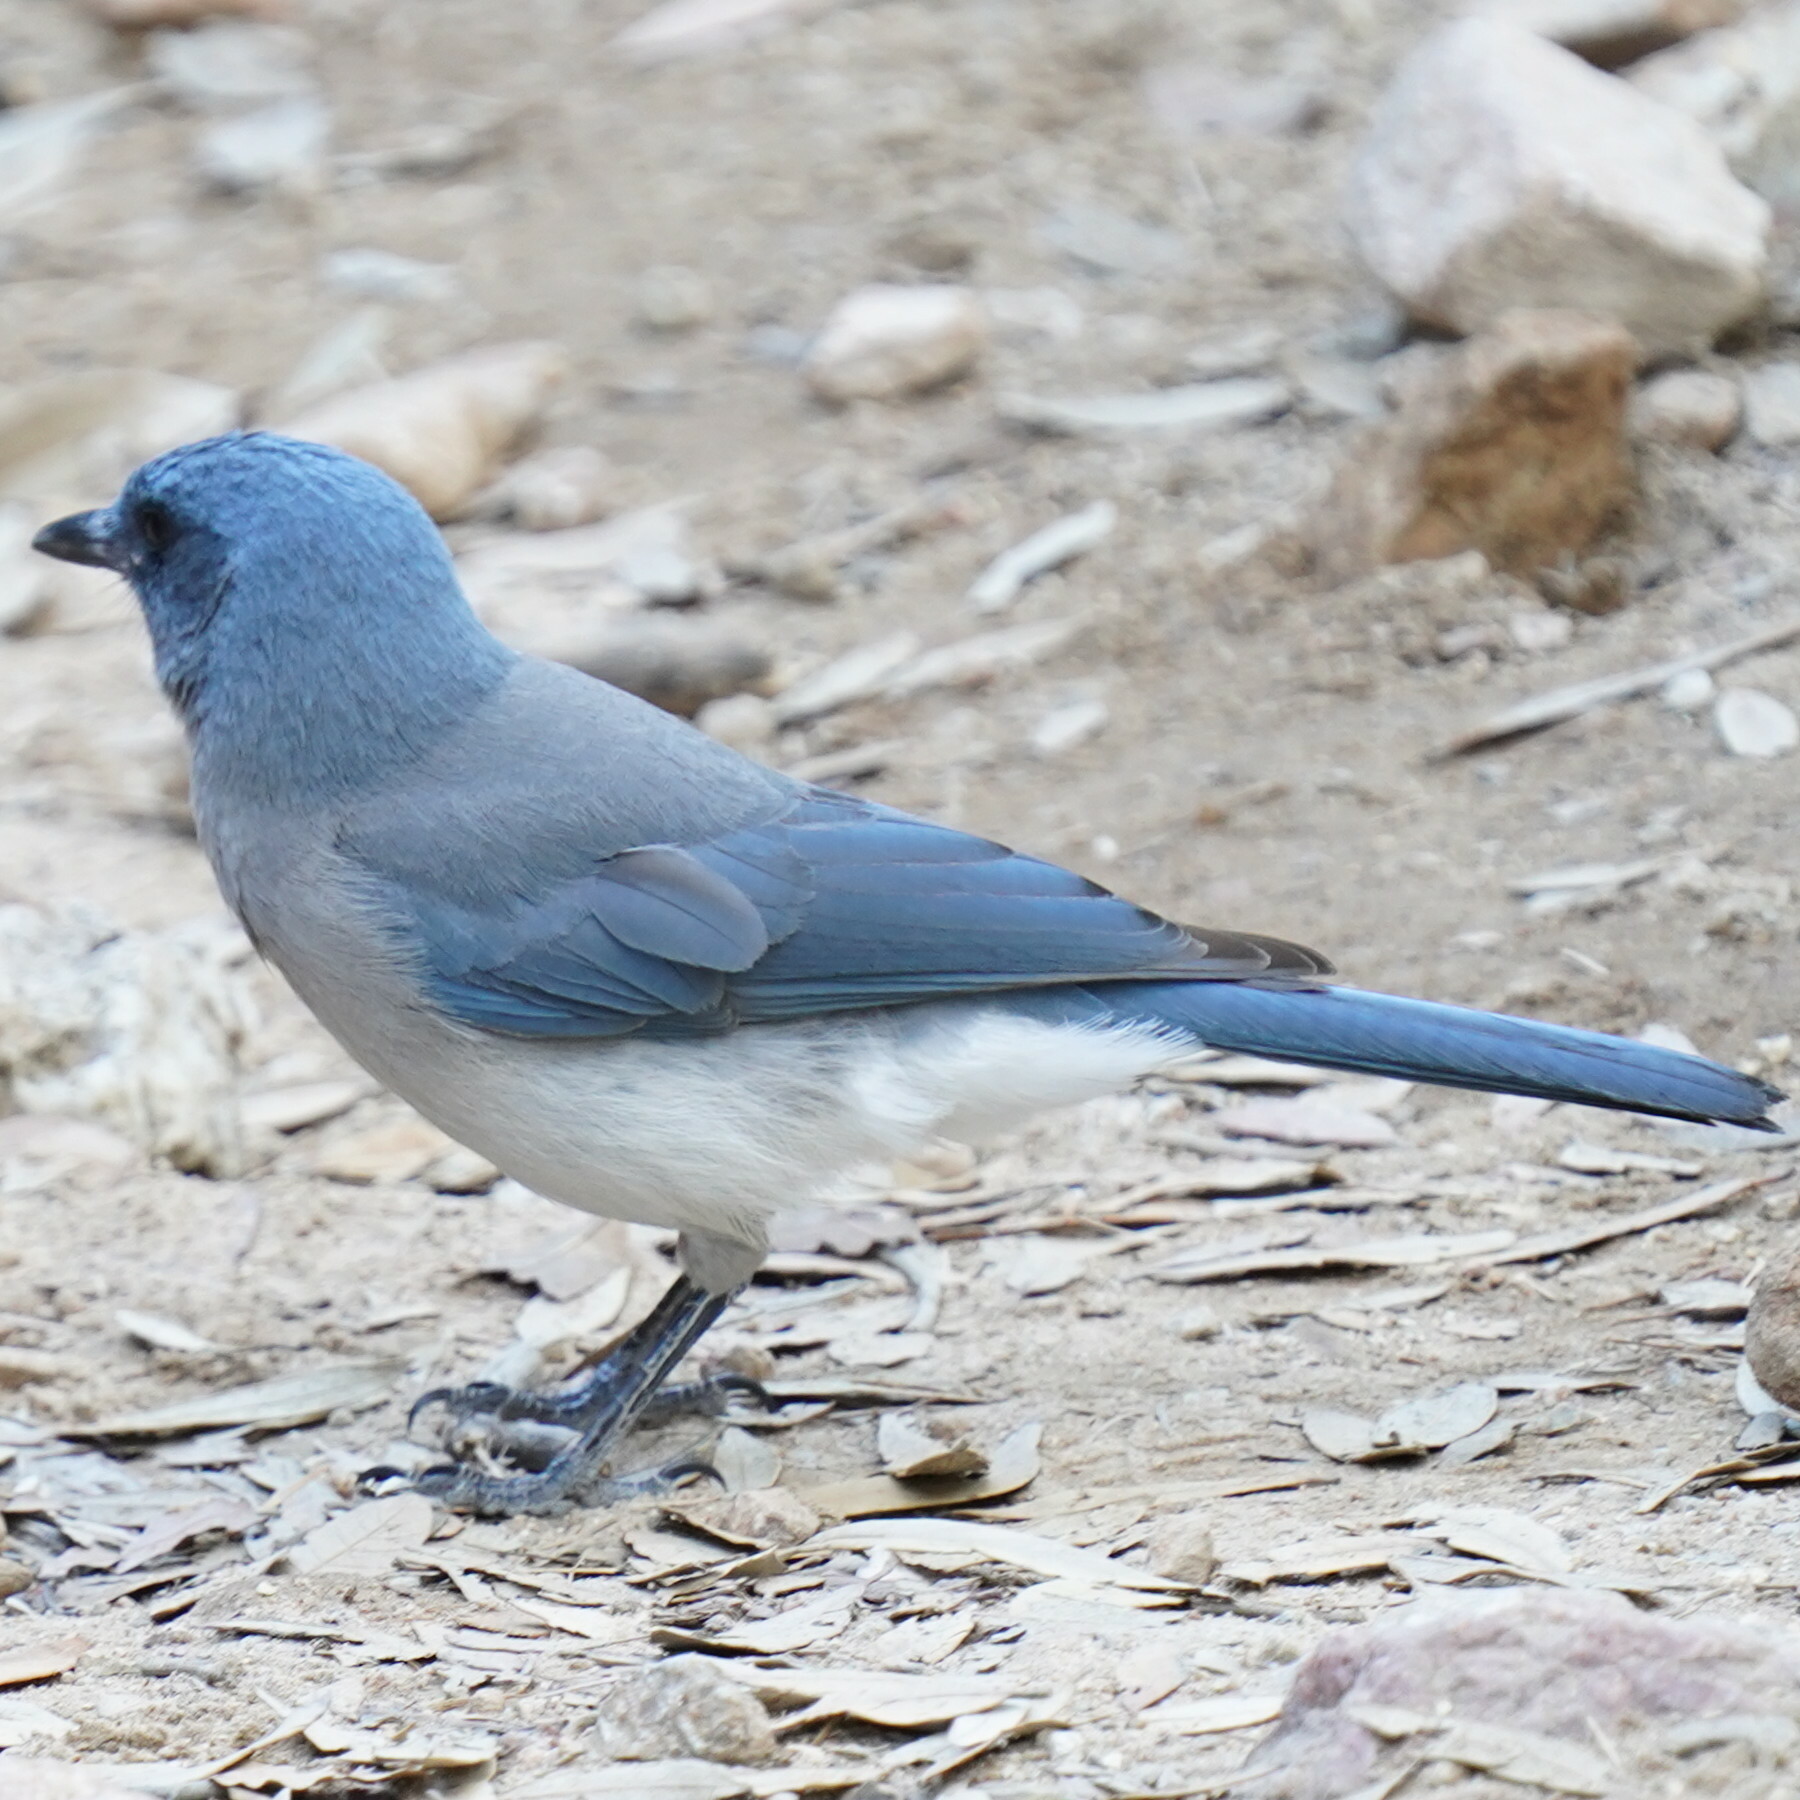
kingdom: Animalia
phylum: Chordata
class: Aves
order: Passeriformes
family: Corvidae
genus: Aphelocoma
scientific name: Aphelocoma wollweberi
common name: Mexican jay
